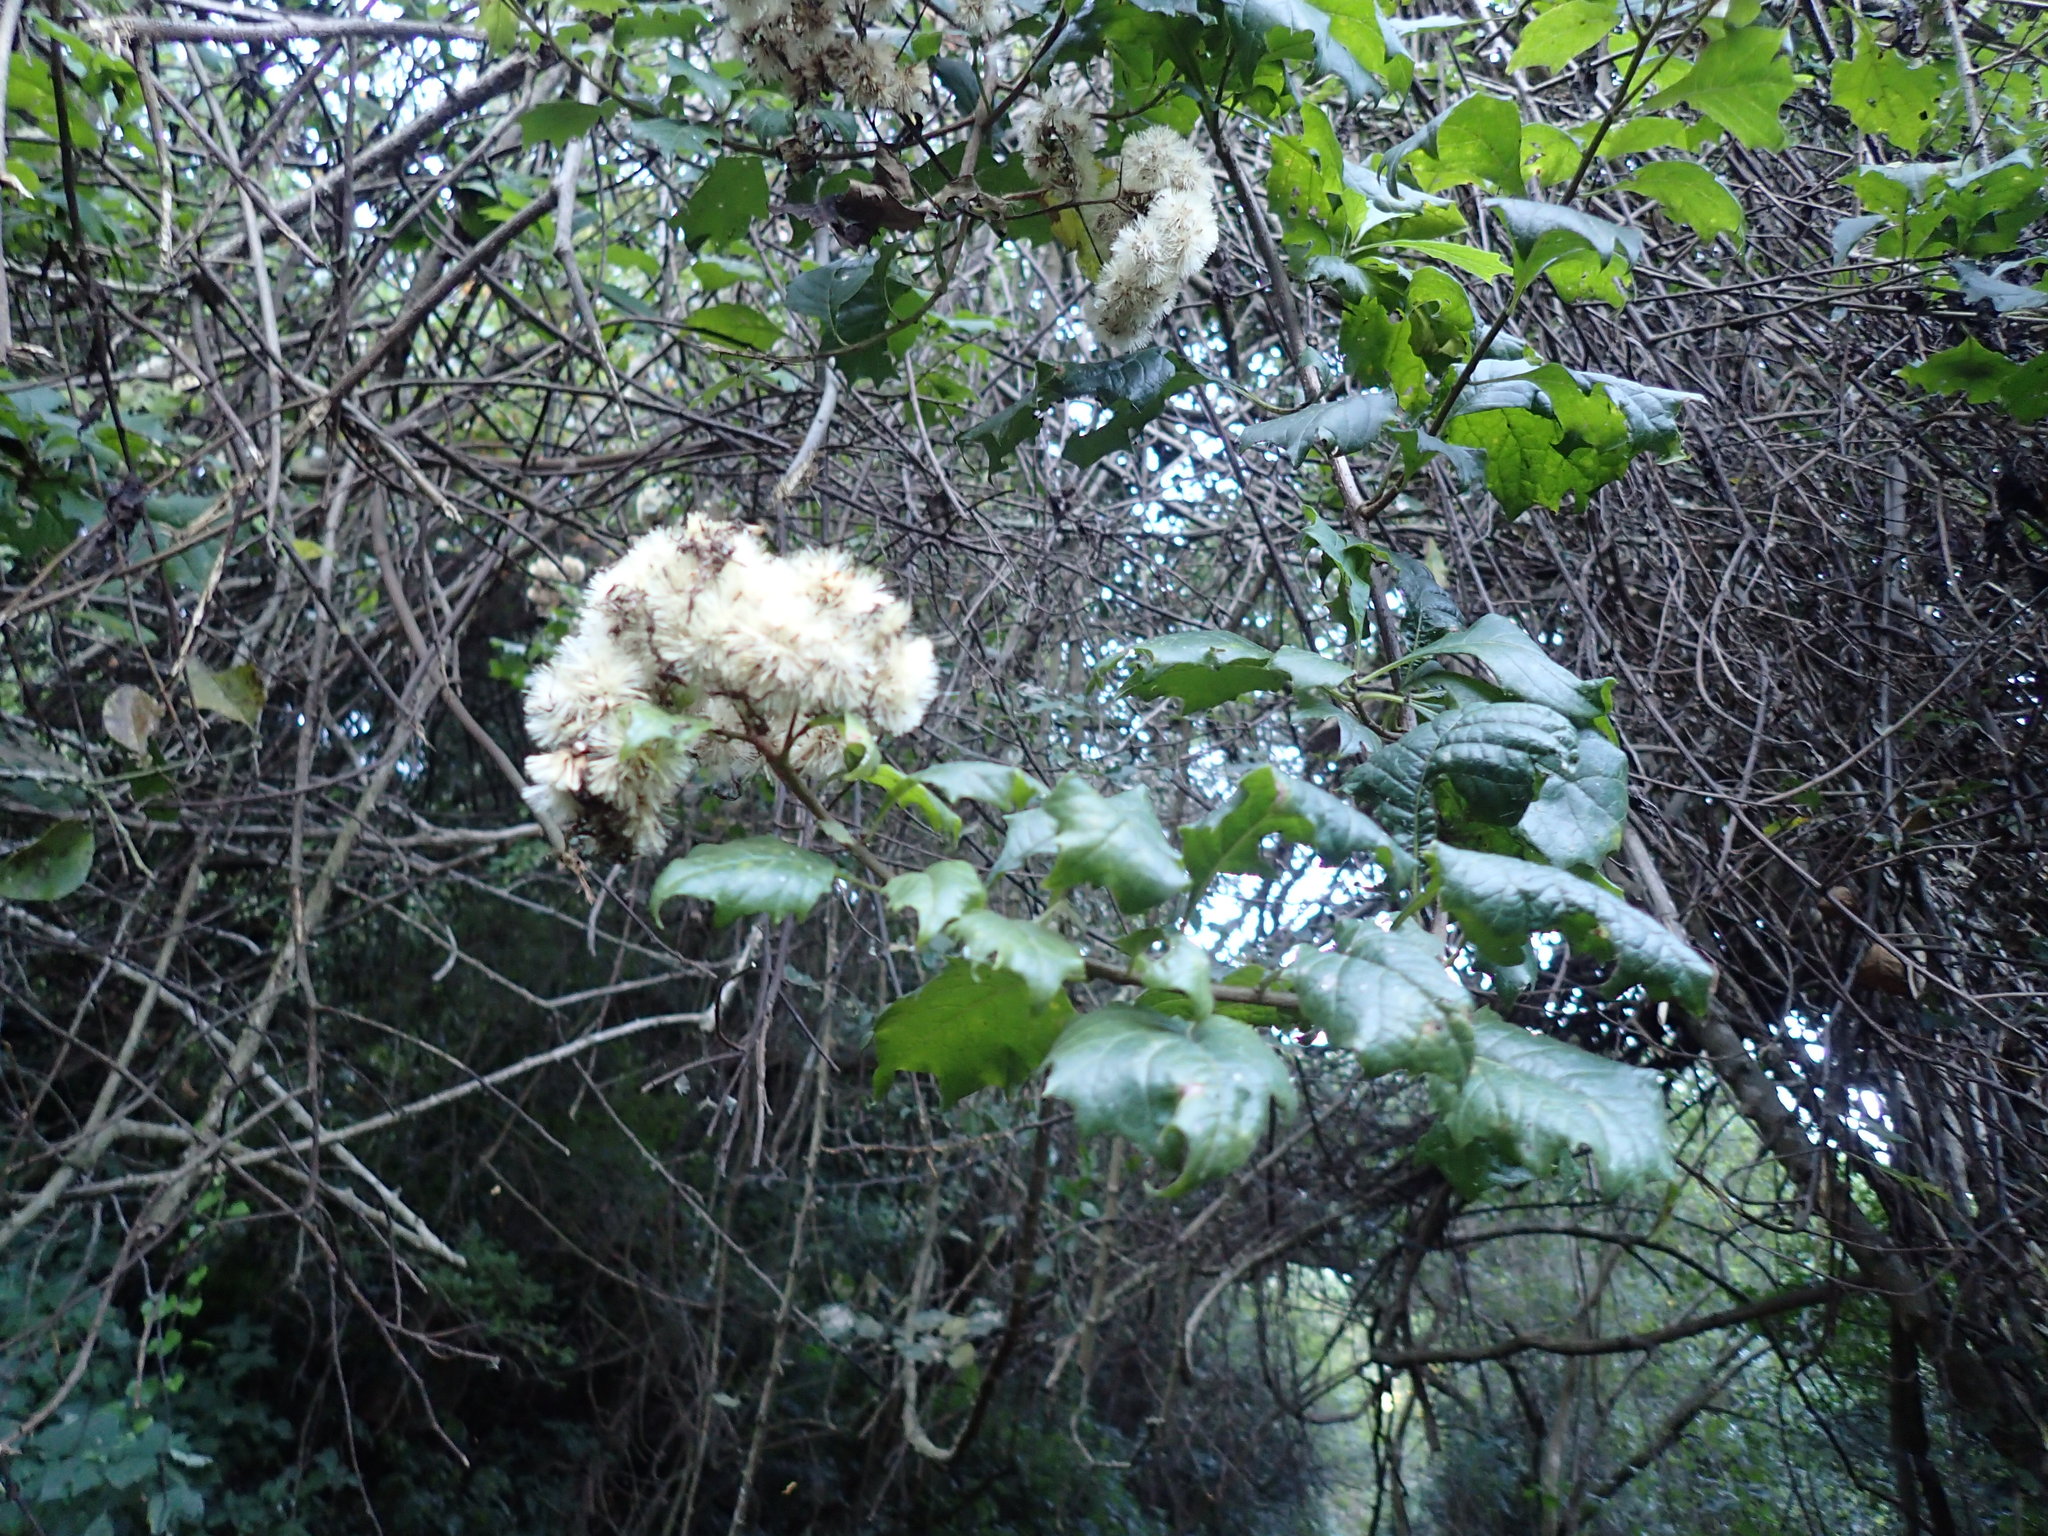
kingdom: Plantae
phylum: Tracheophyta
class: Magnoliopsida
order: Asterales
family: Asteraceae
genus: Distephanus
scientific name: Distephanus angulifolius
